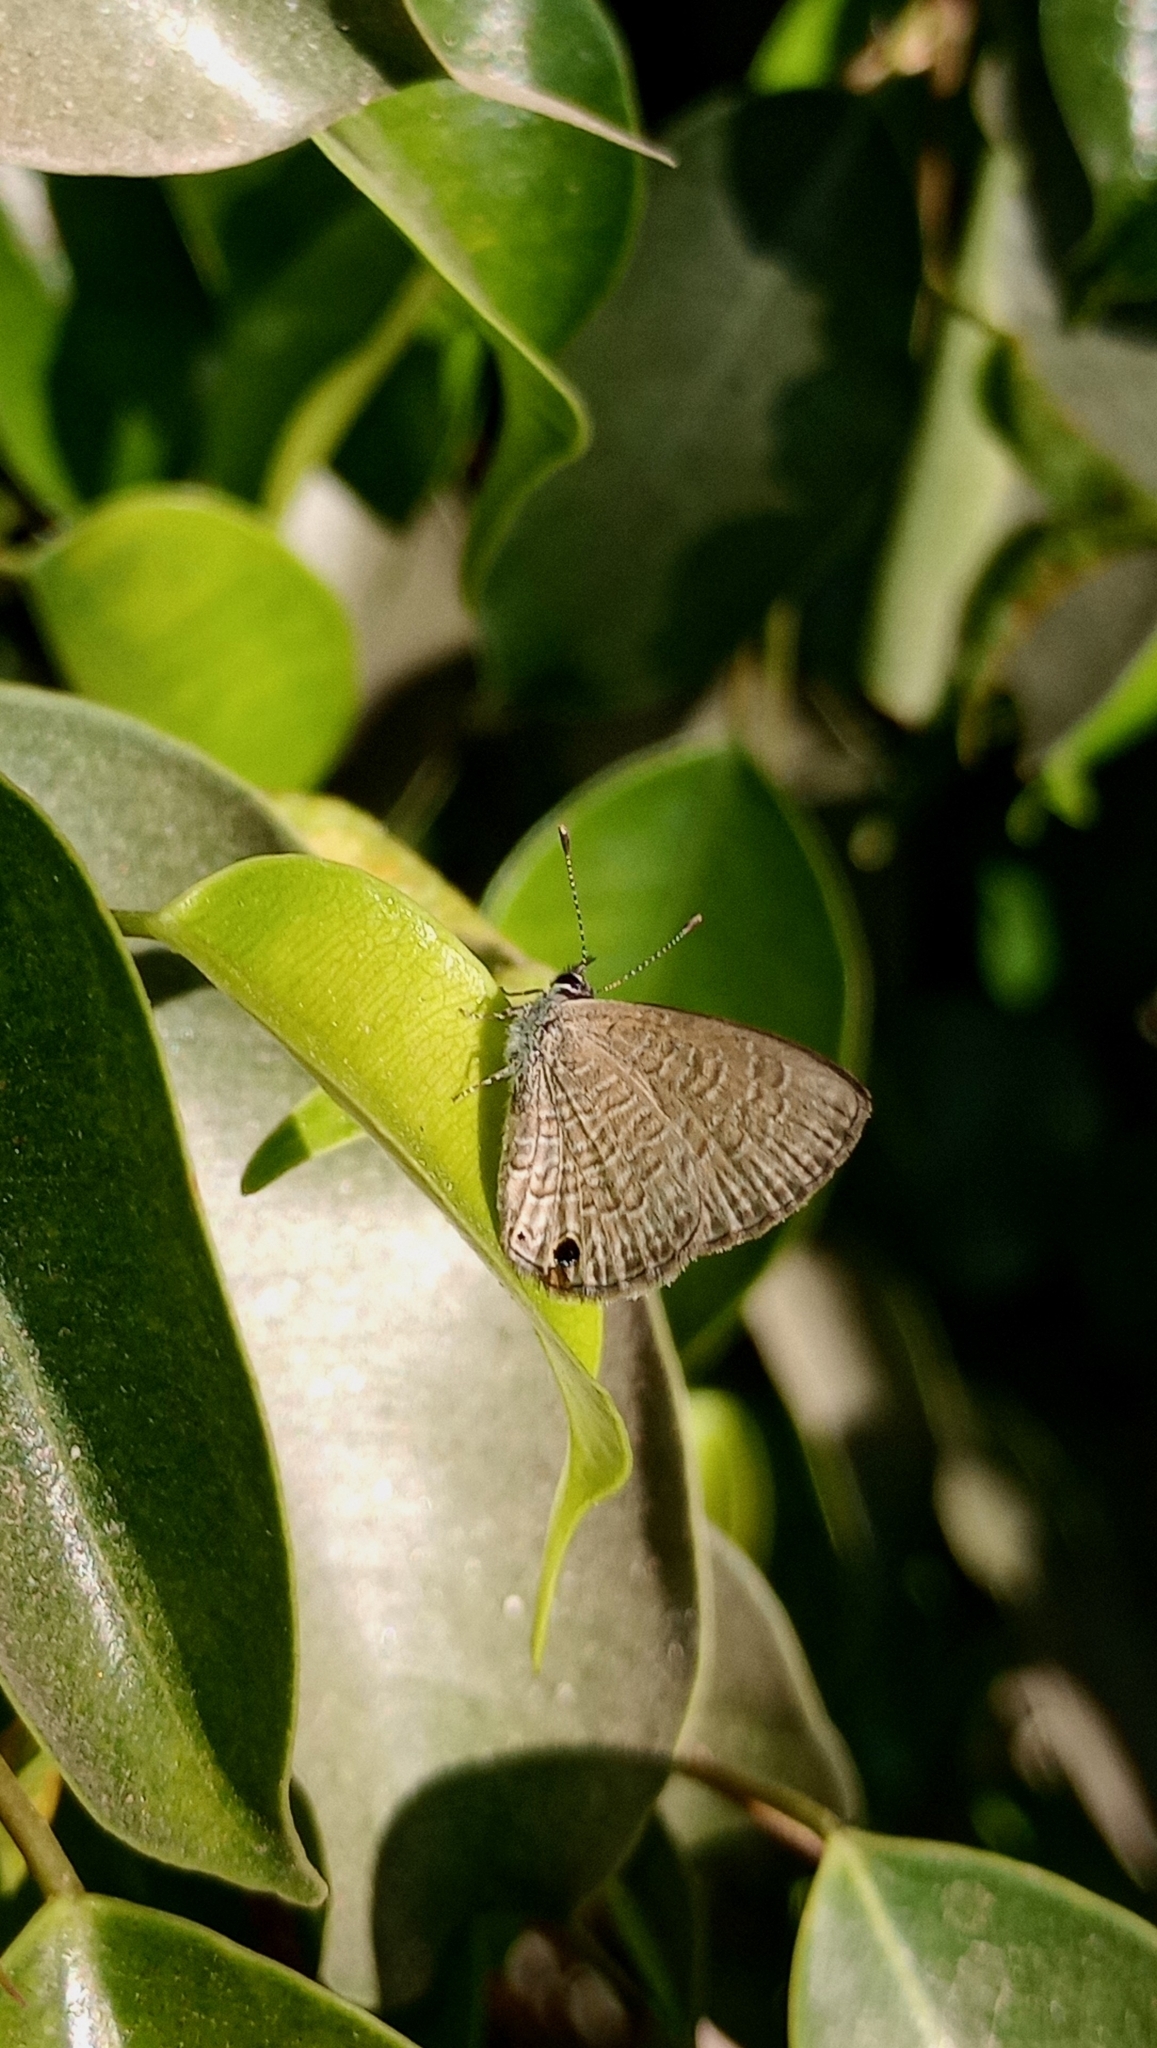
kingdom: Animalia
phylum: Arthropoda
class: Insecta
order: Lepidoptera
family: Lycaenidae
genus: Prosotas
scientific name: Prosotas dubiosa
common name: Tailless lineblue
